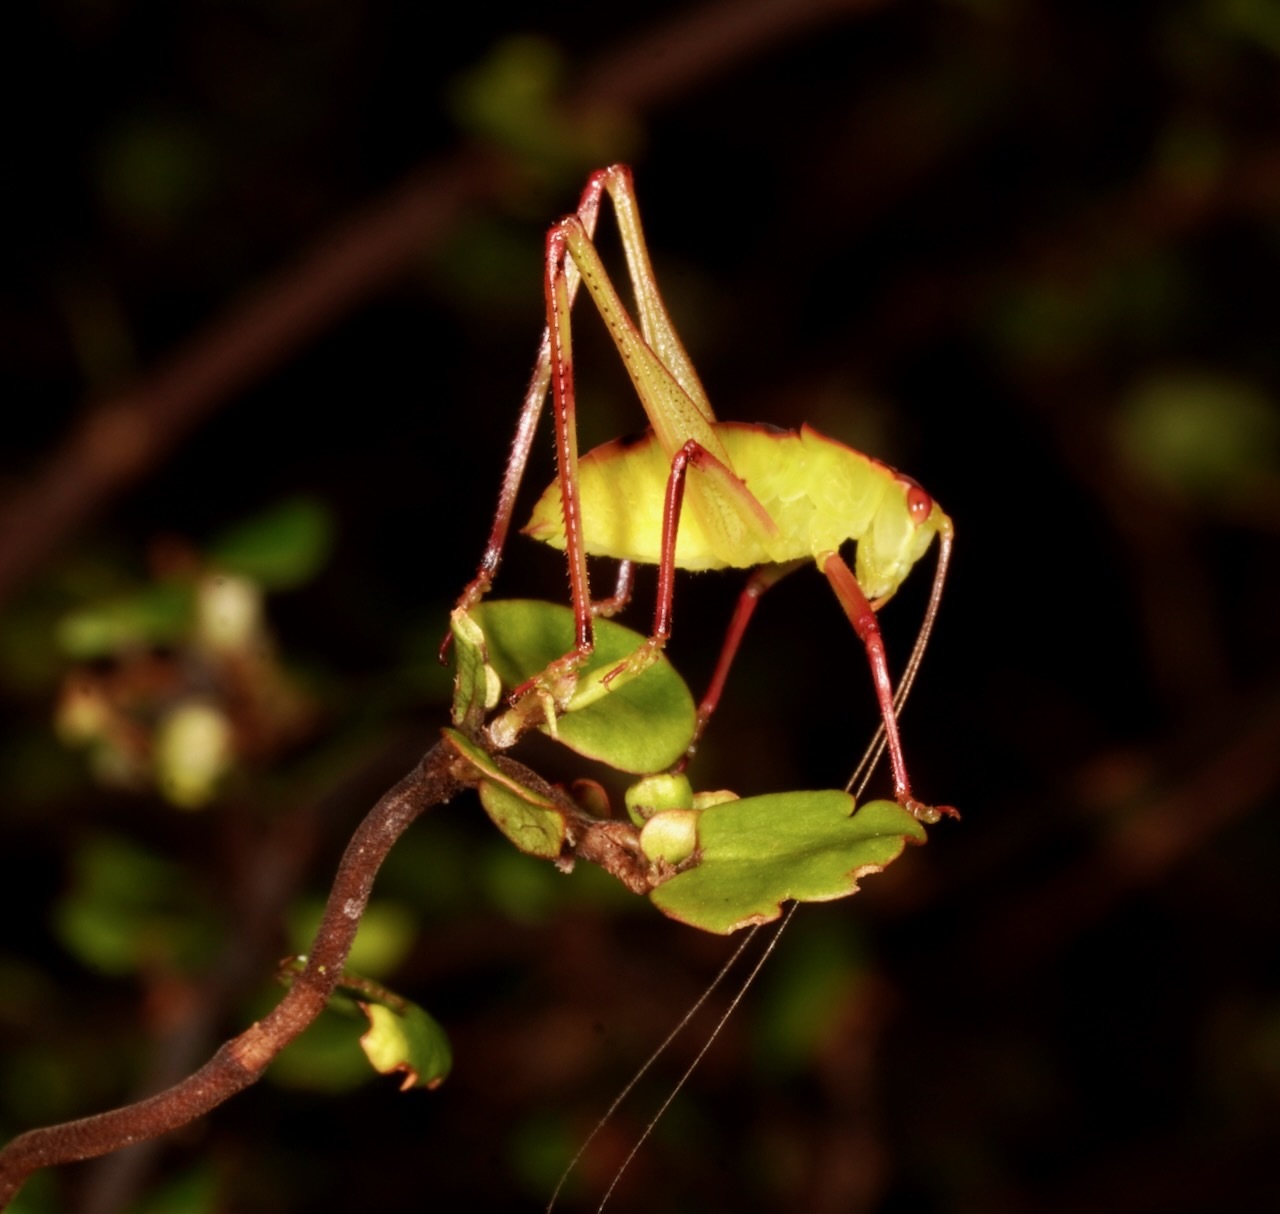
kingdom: Animalia
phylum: Arthropoda
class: Insecta
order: Orthoptera
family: Tettigoniidae
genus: Caedicia
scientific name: Caedicia simplex
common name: Common garden katydid
